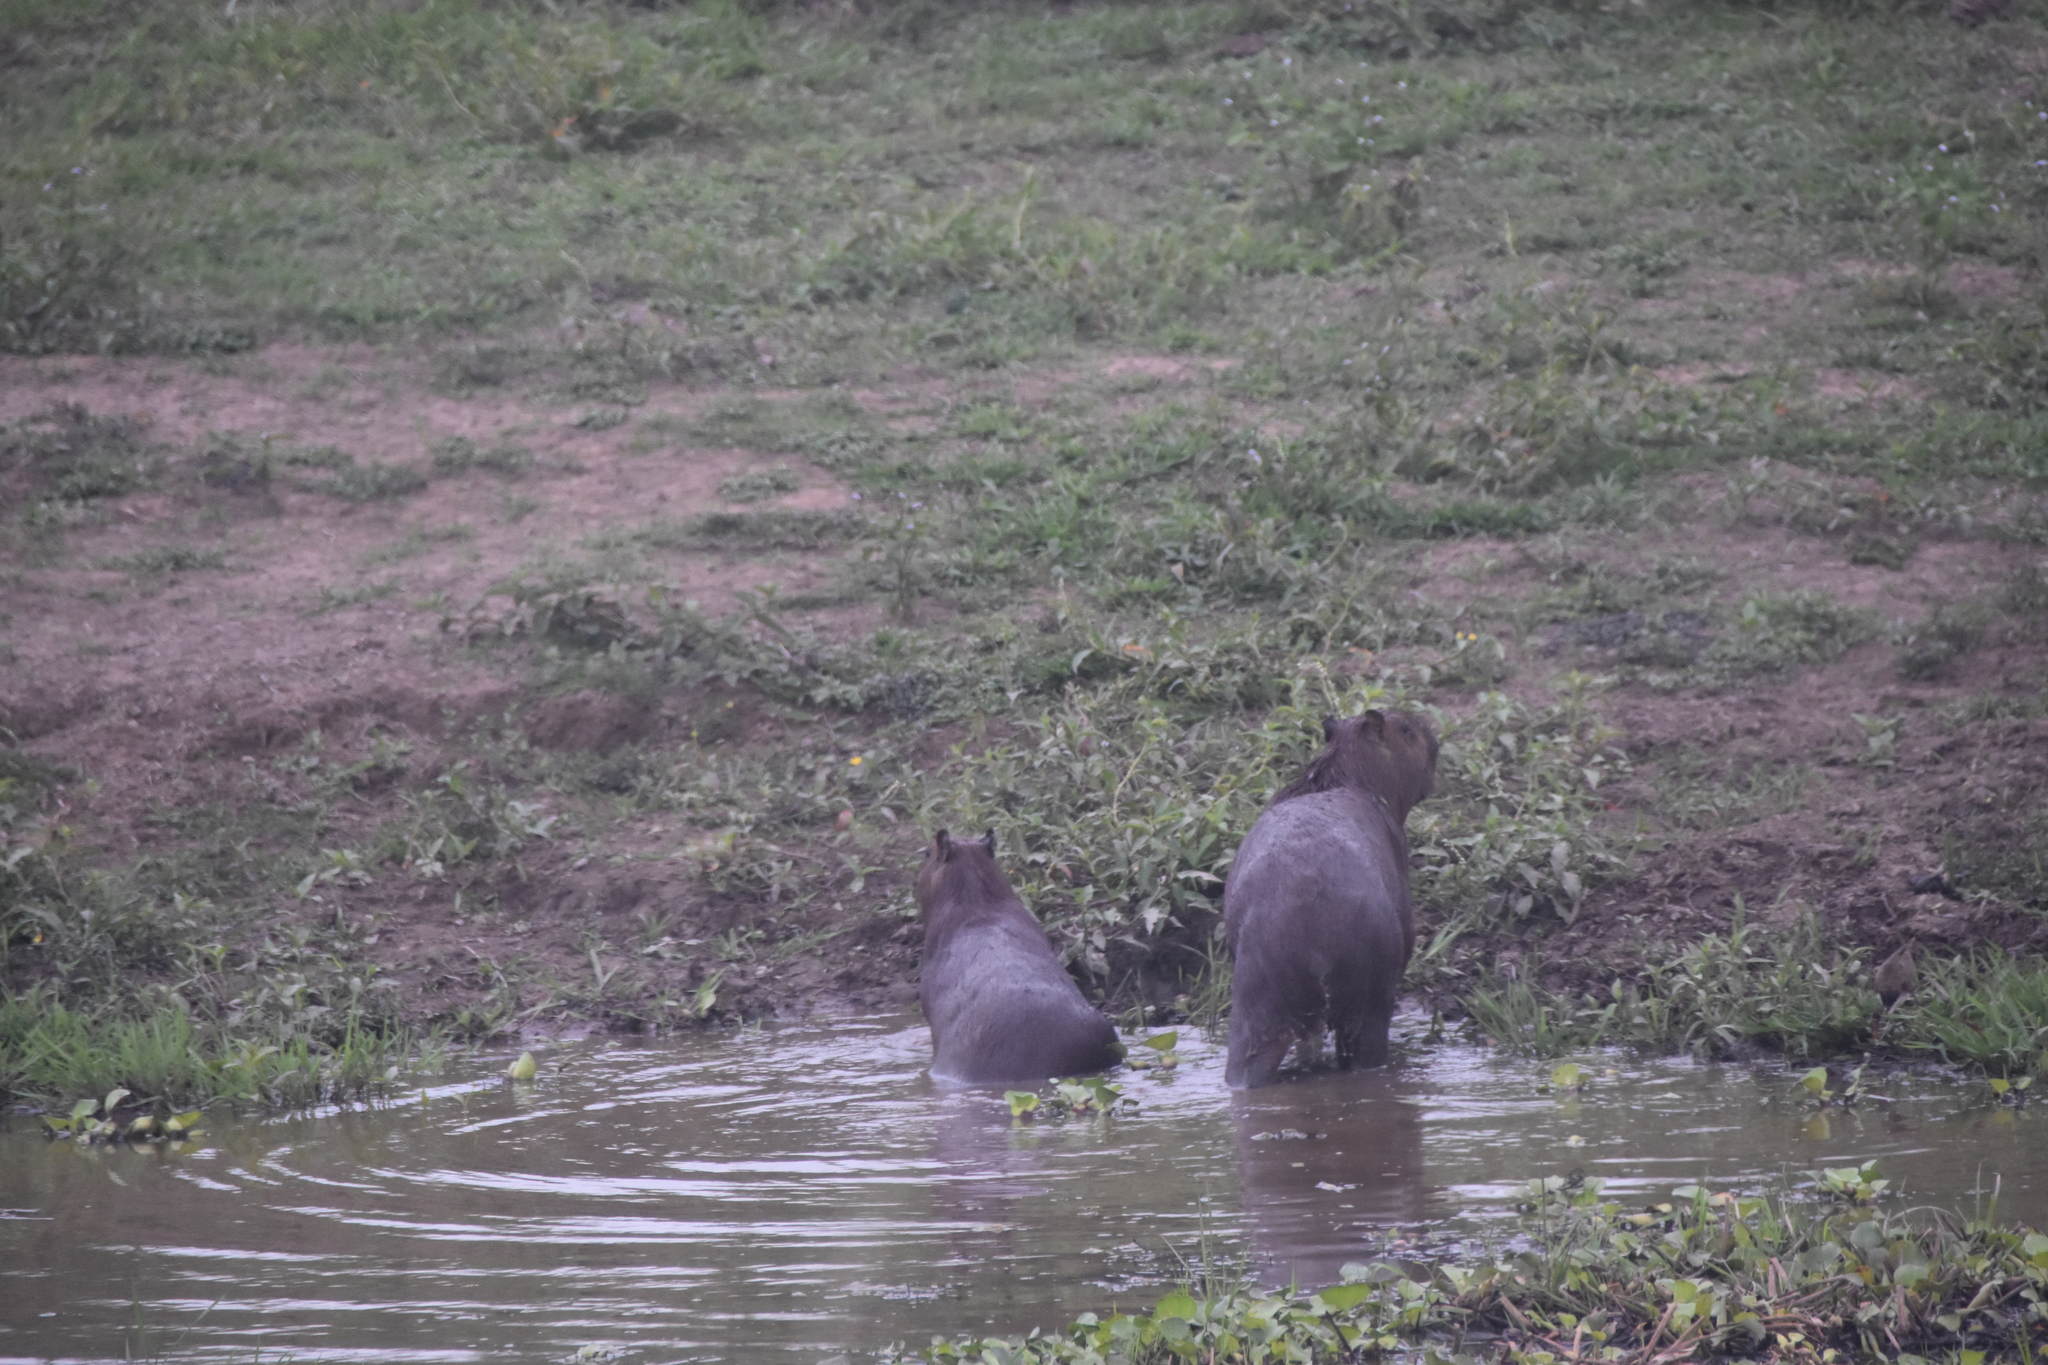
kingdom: Animalia
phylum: Chordata
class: Mammalia
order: Rodentia
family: Caviidae
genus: Hydrochoerus
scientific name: Hydrochoerus hydrochaeris
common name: Capybara
